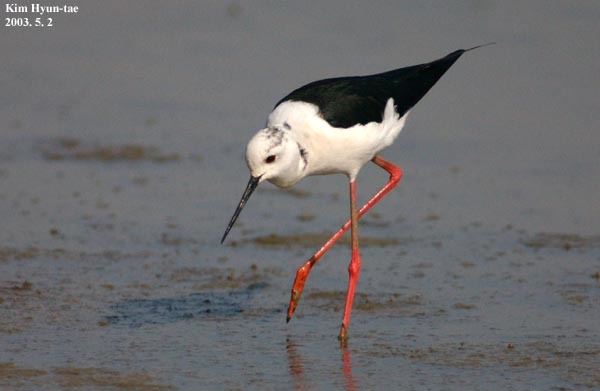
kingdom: Animalia
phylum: Chordata
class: Aves
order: Charadriiformes
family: Recurvirostridae
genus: Himantopus
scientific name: Himantopus himantopus
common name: Black-winged stilt
